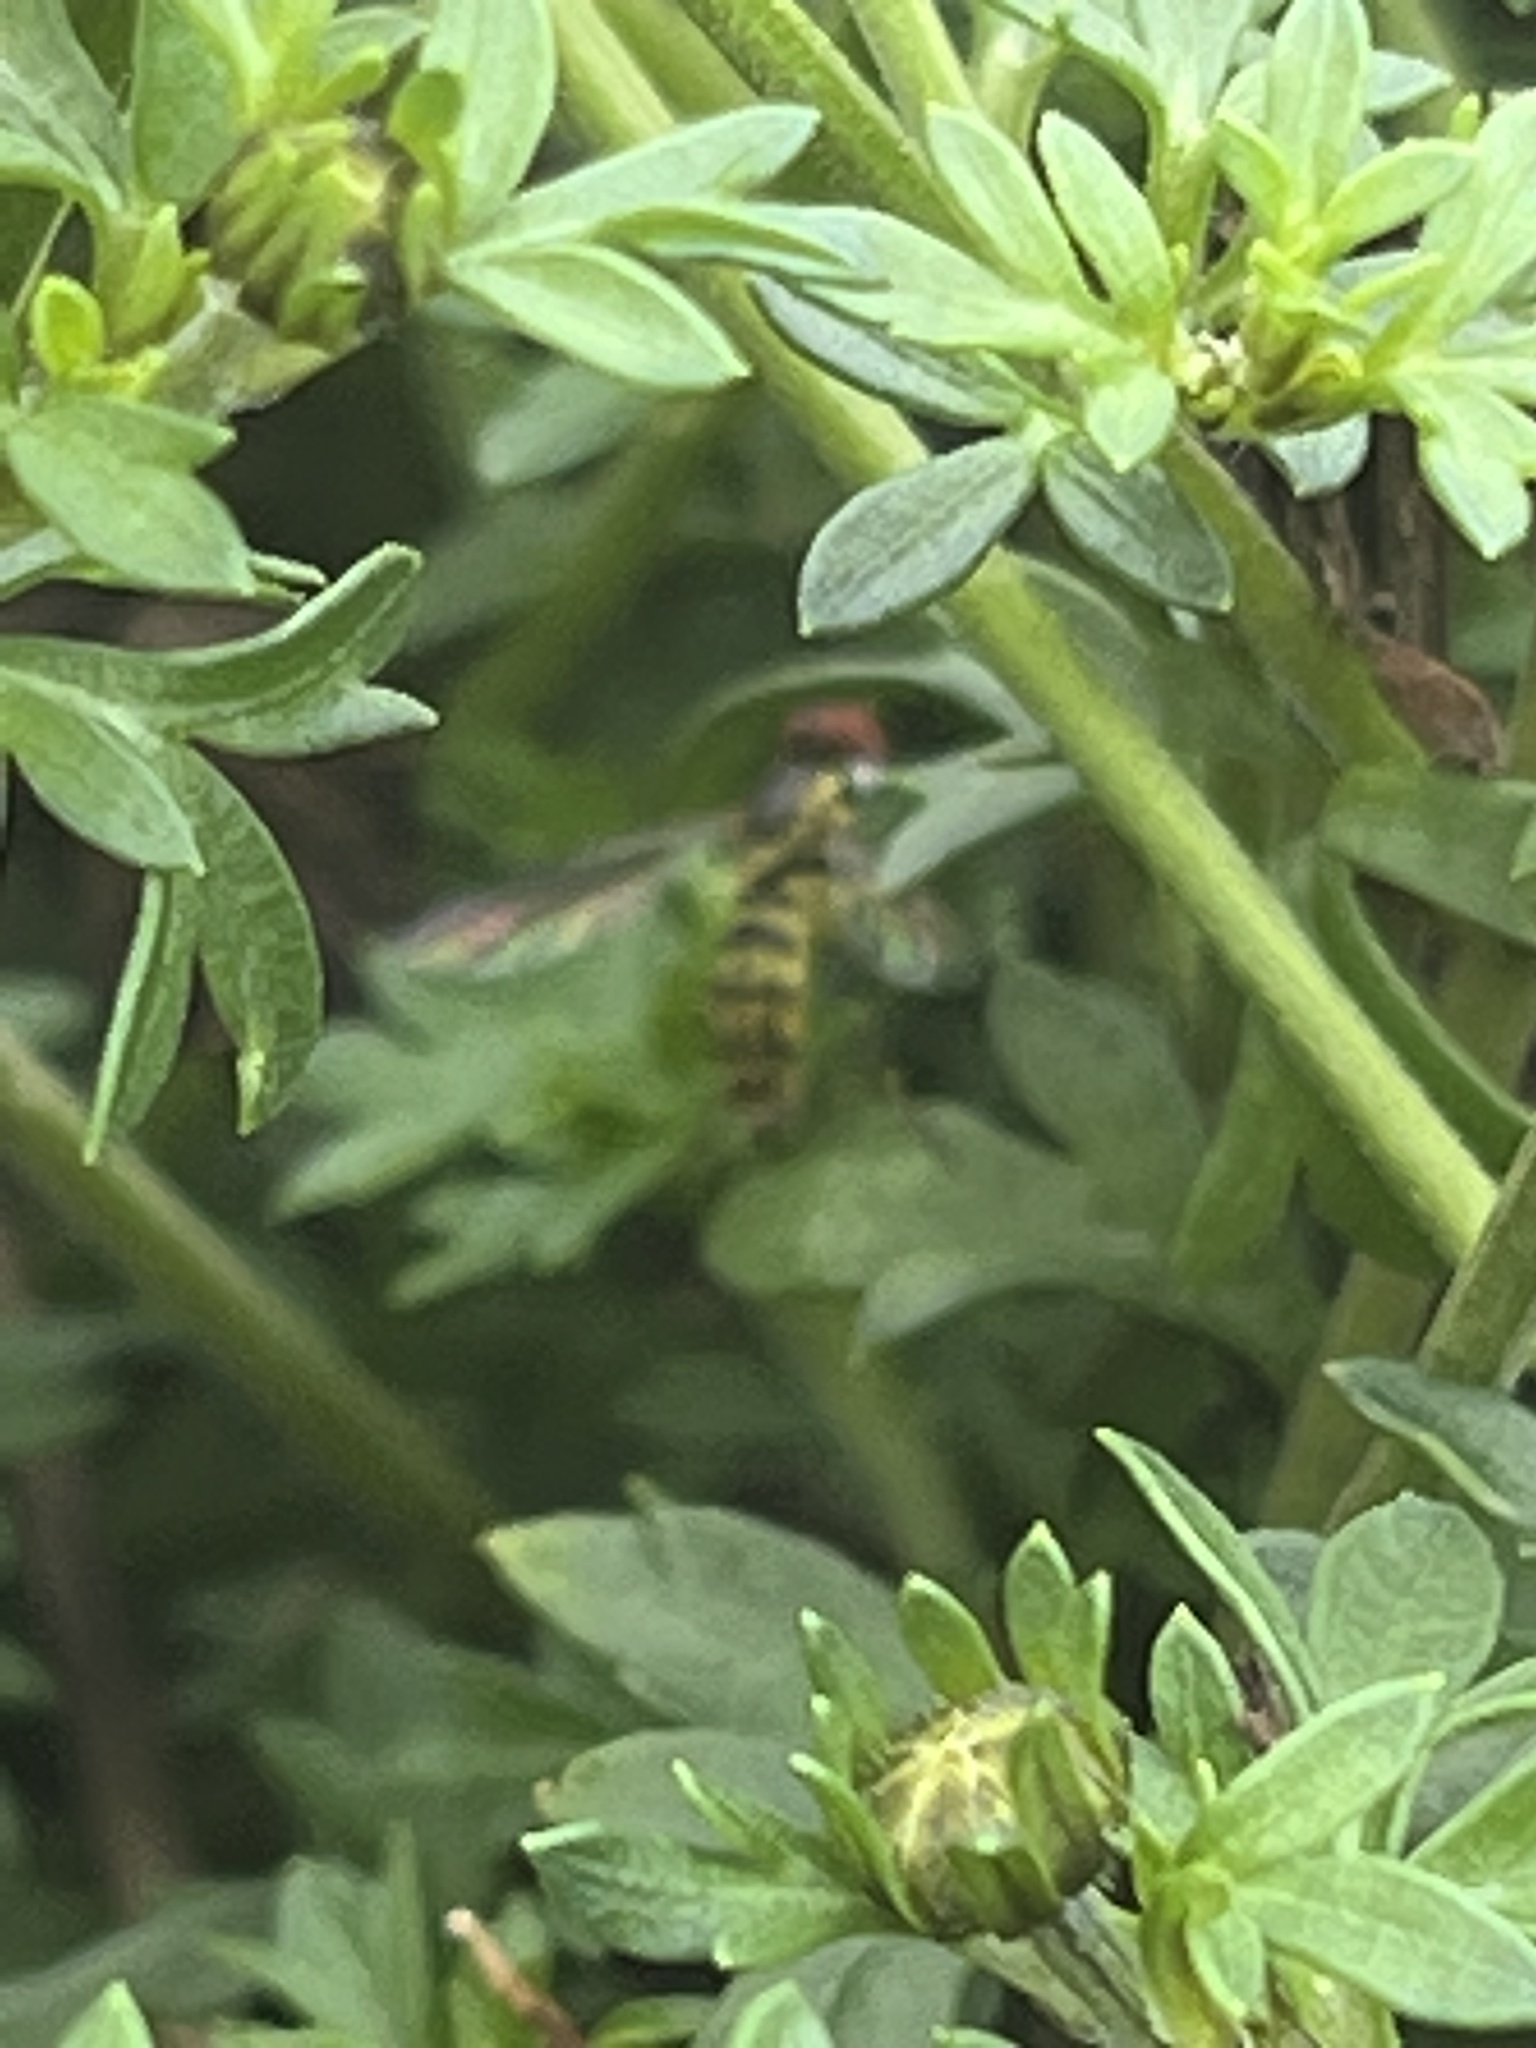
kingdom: Animalia
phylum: Arthropoda
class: Insecta
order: Diptera
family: Syrphidae
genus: Toxomerus
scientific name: Toxomerus geminatus
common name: Eastern calligrapher
